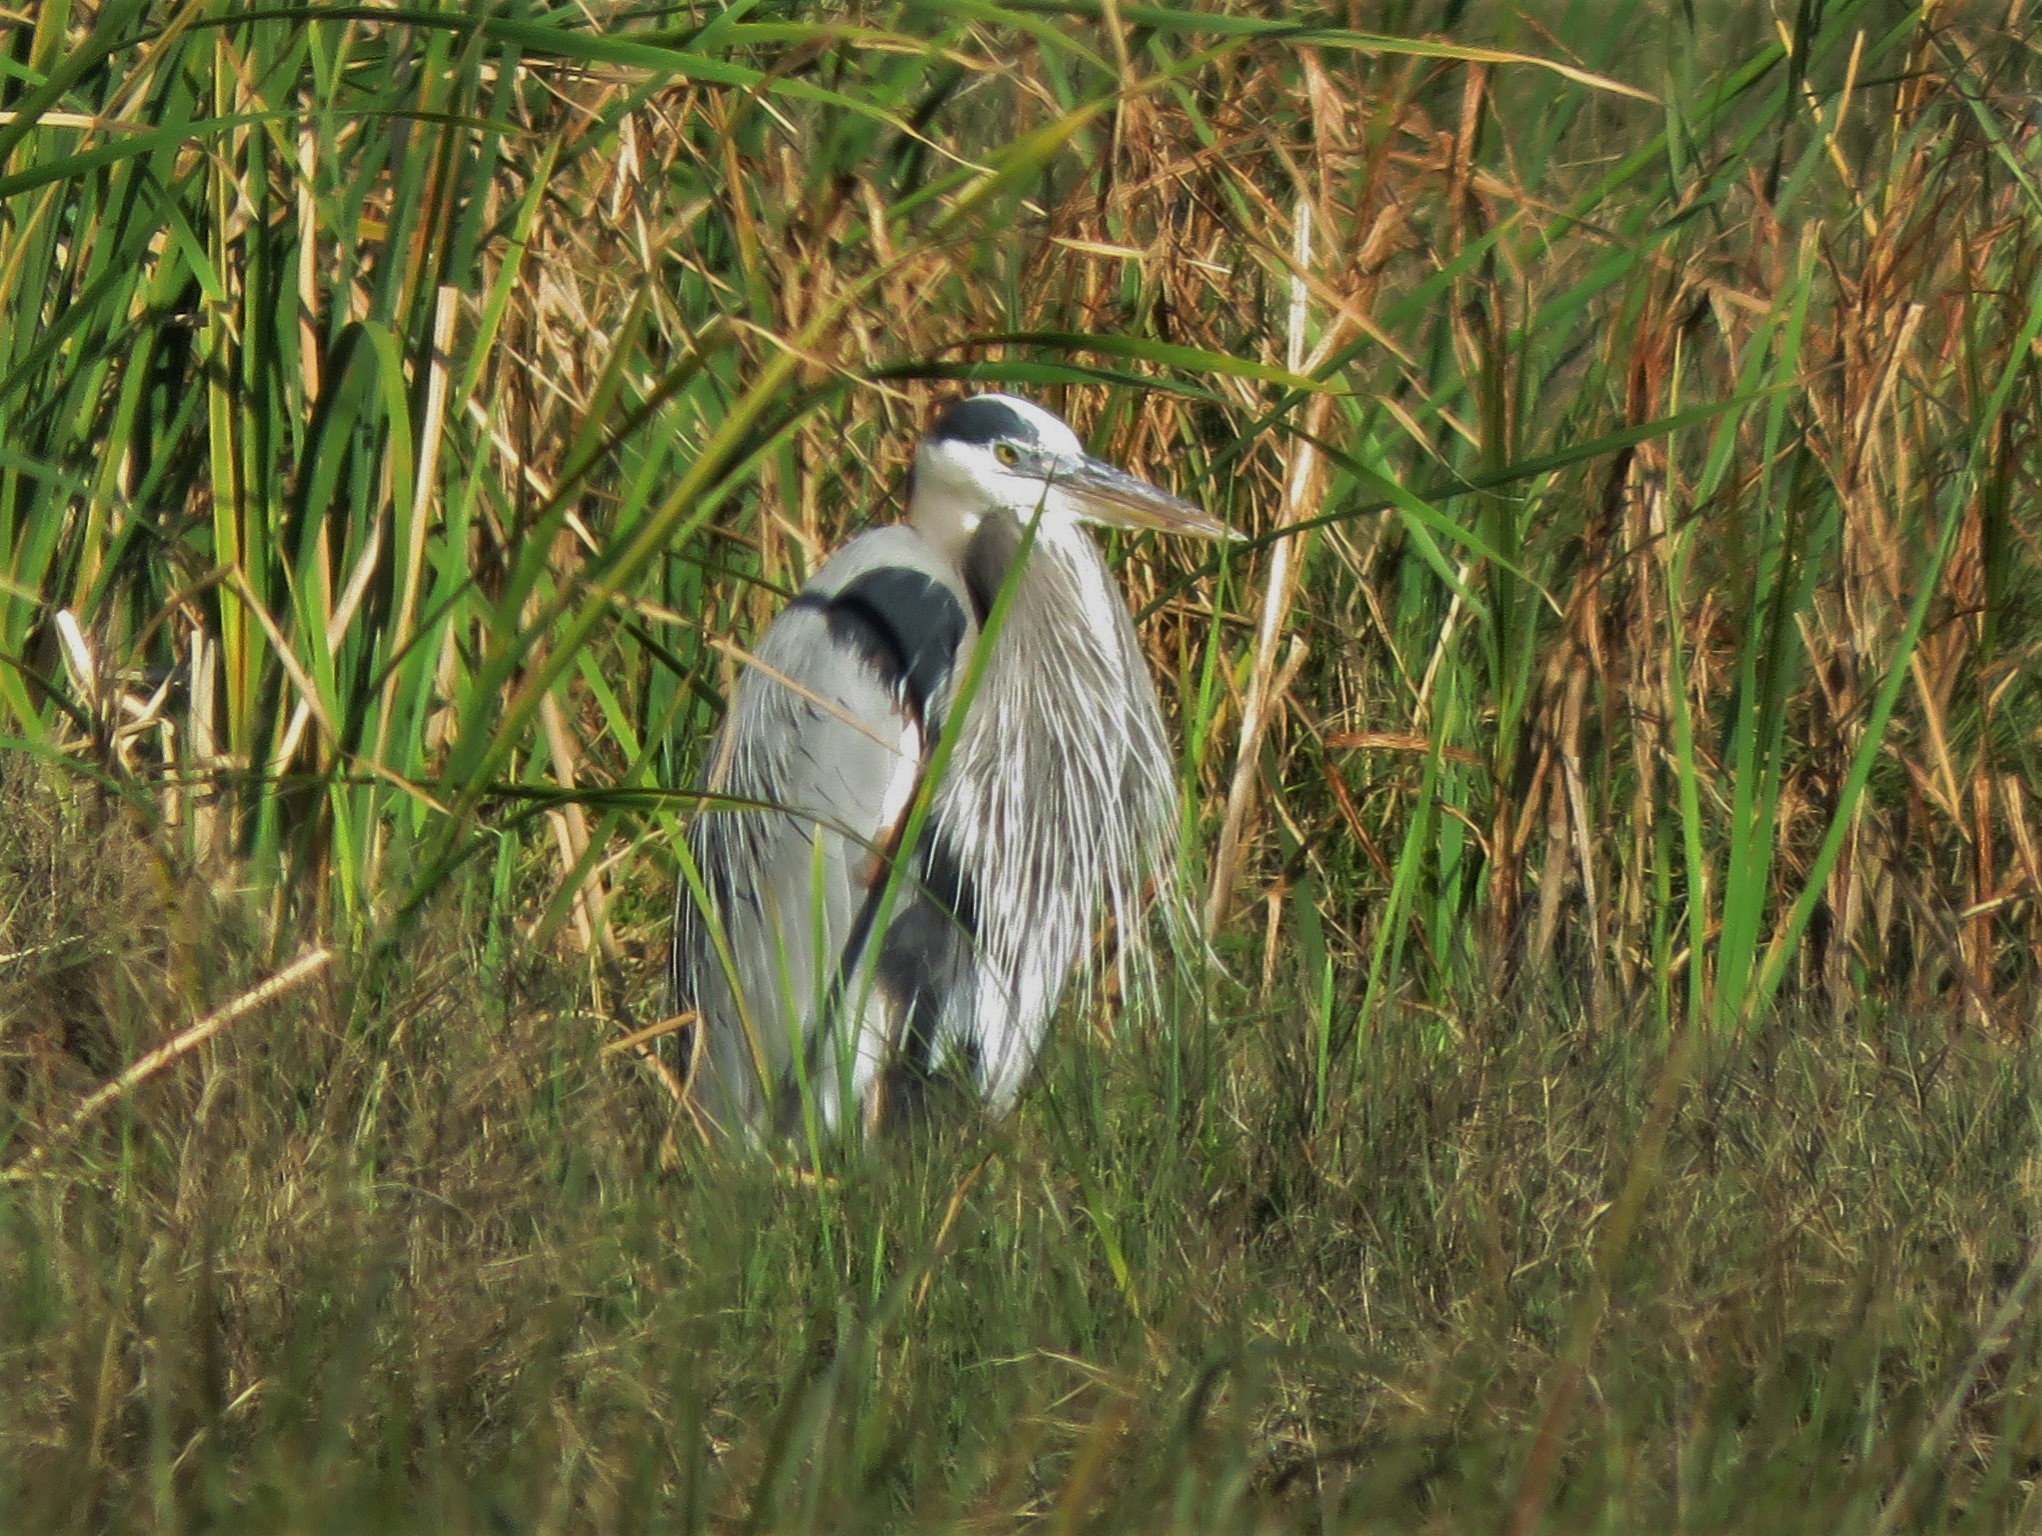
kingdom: Animalia
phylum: Chordata
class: Aves
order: Pelecaniformes
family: Ardeidae
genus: Ardea
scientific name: Ardea herodias
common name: Great blue heron
